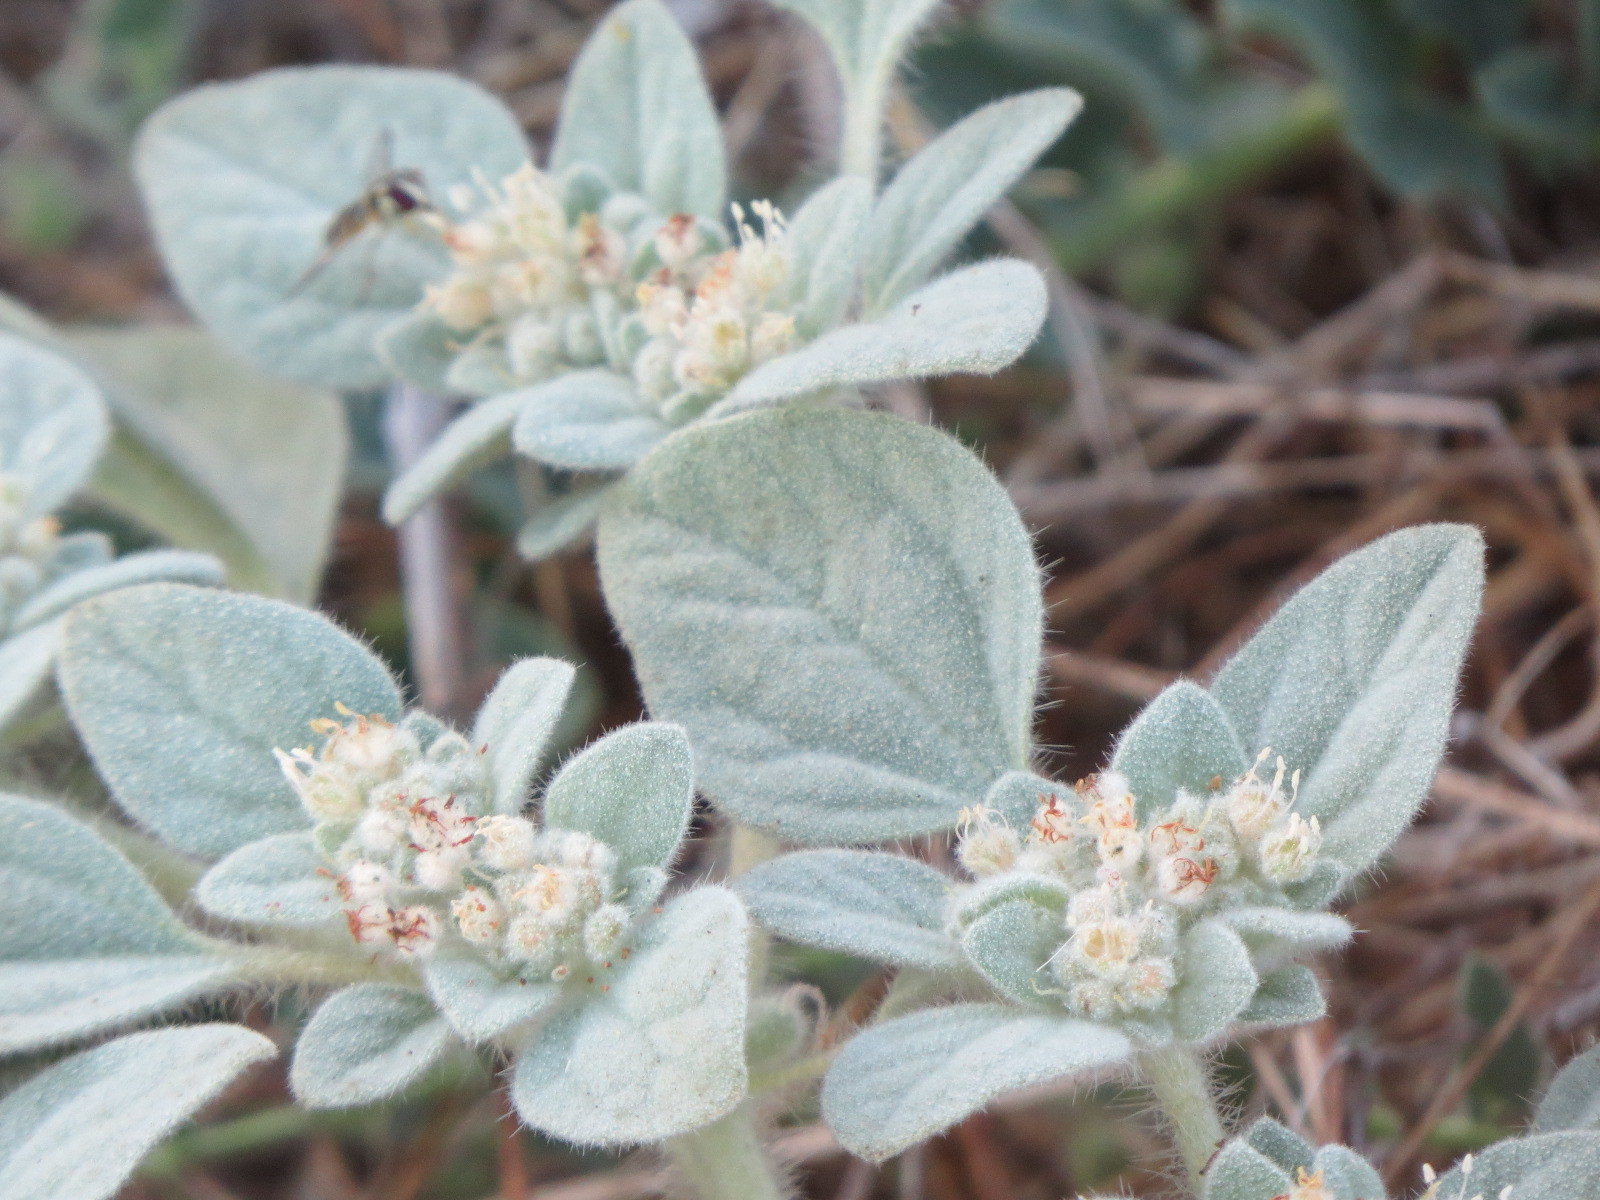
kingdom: Plantae
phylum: Tracheophyta
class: Magnoliopsida
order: Malpighiales
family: Euphorbiaceae
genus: Croton
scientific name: Croton setiger
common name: Dove weed
